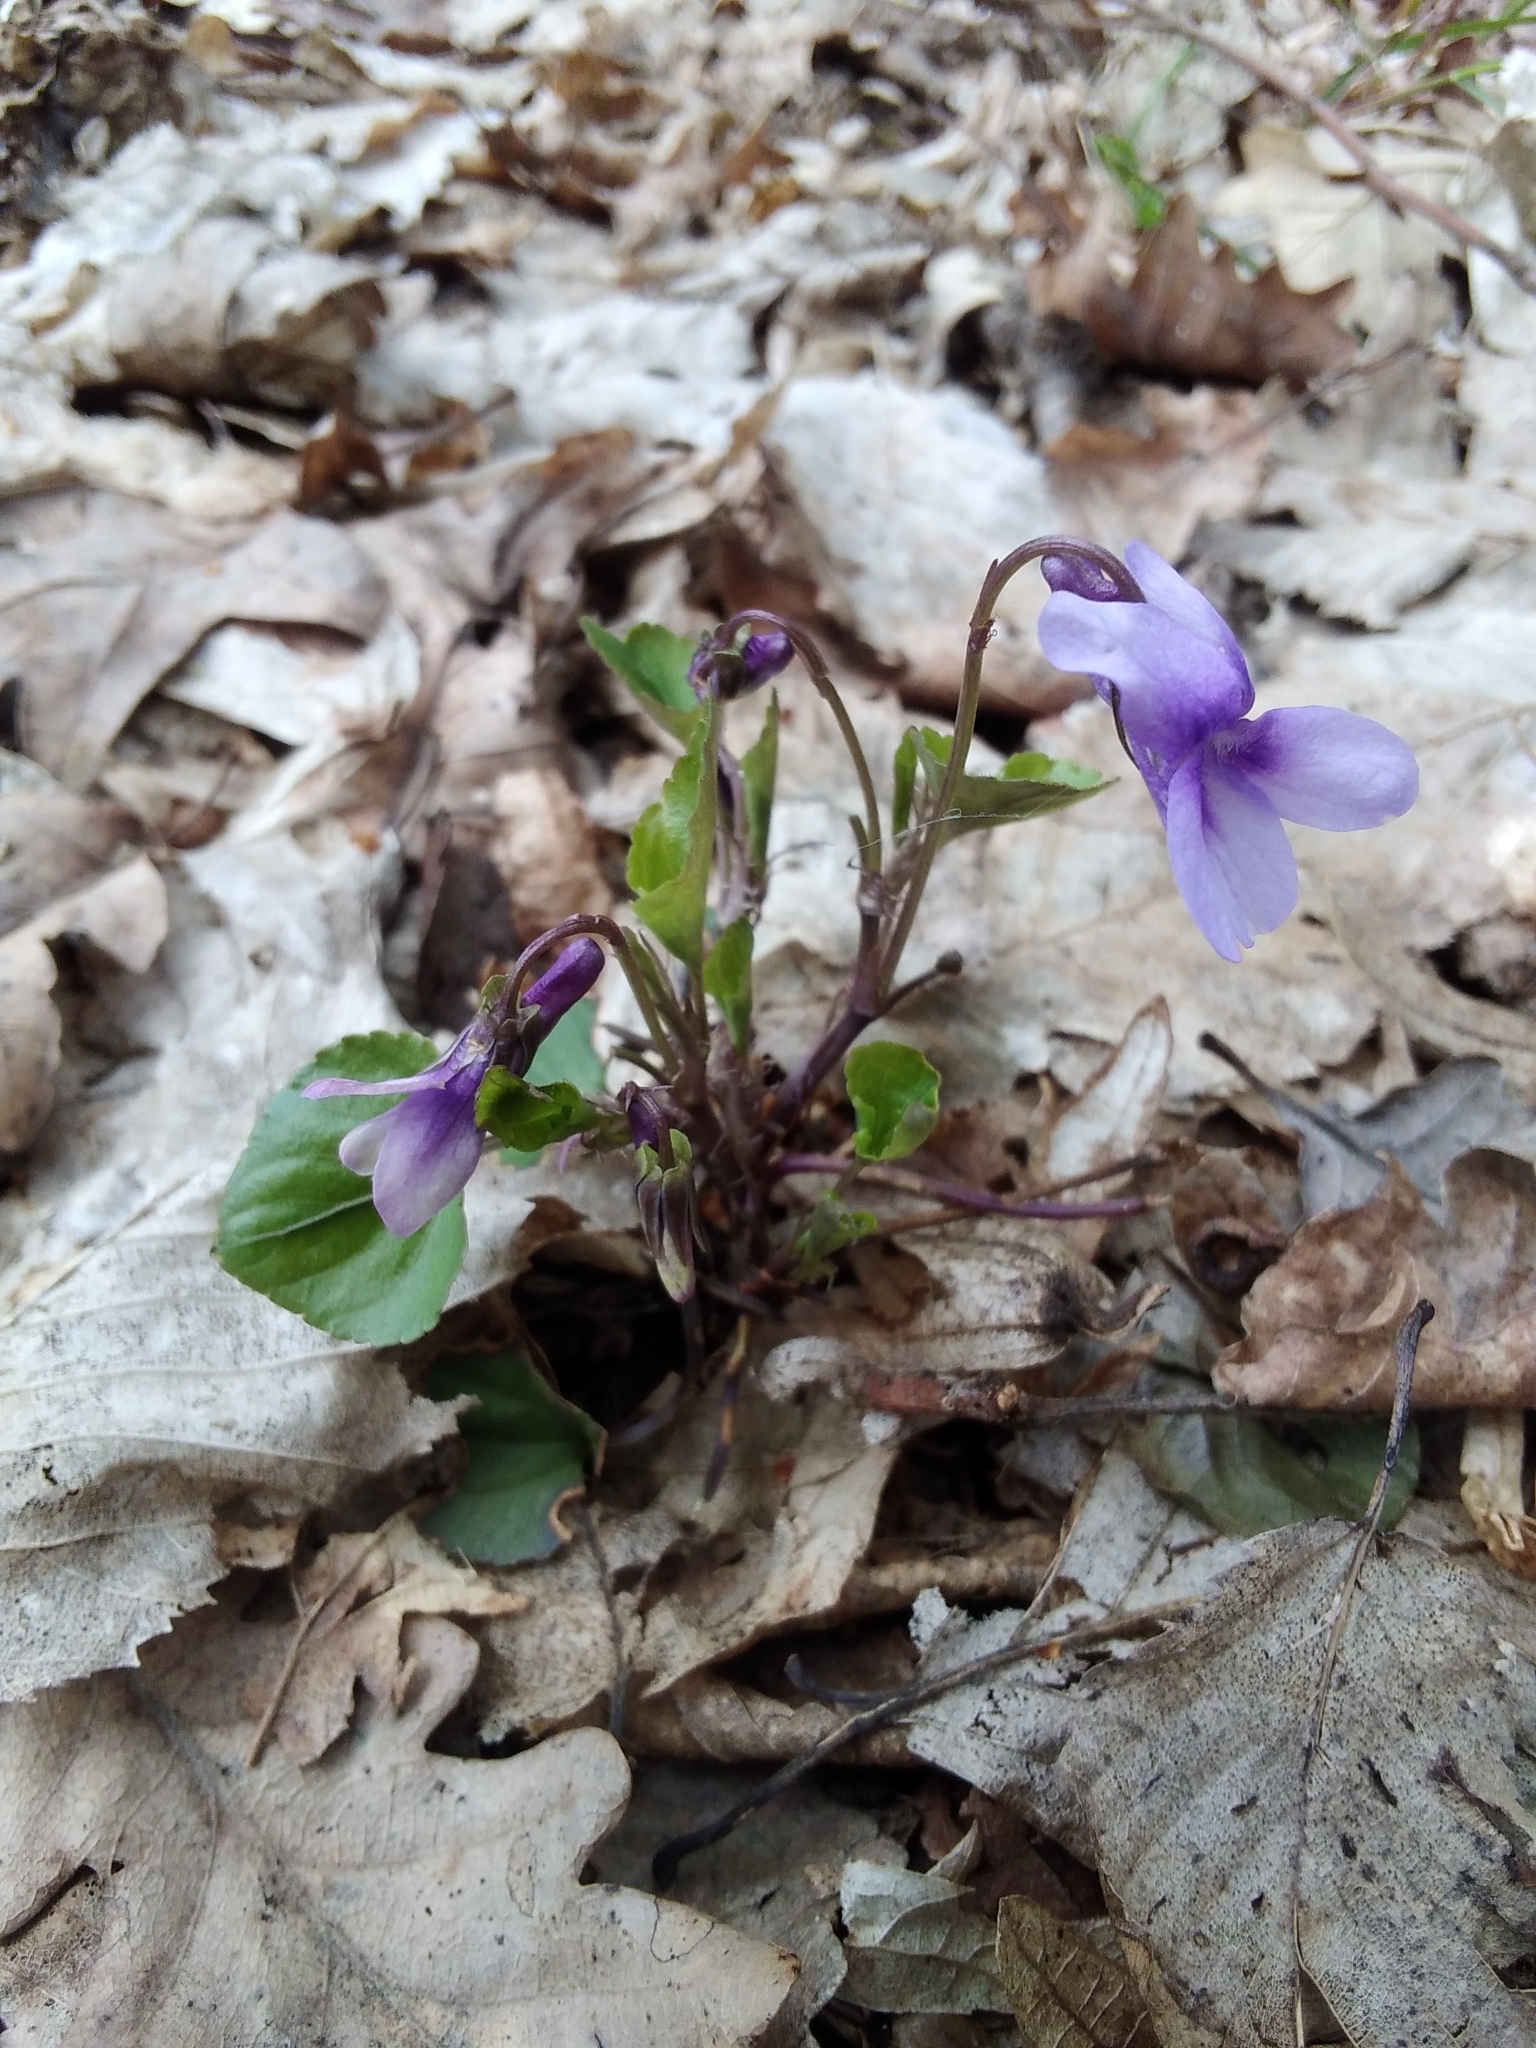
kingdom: Plantae
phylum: Tracheophyta
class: Magnoliopsida
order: Malpighiales
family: Violaceae
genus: Viola
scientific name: Viola reichenbachiana
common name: Early dog-violet
